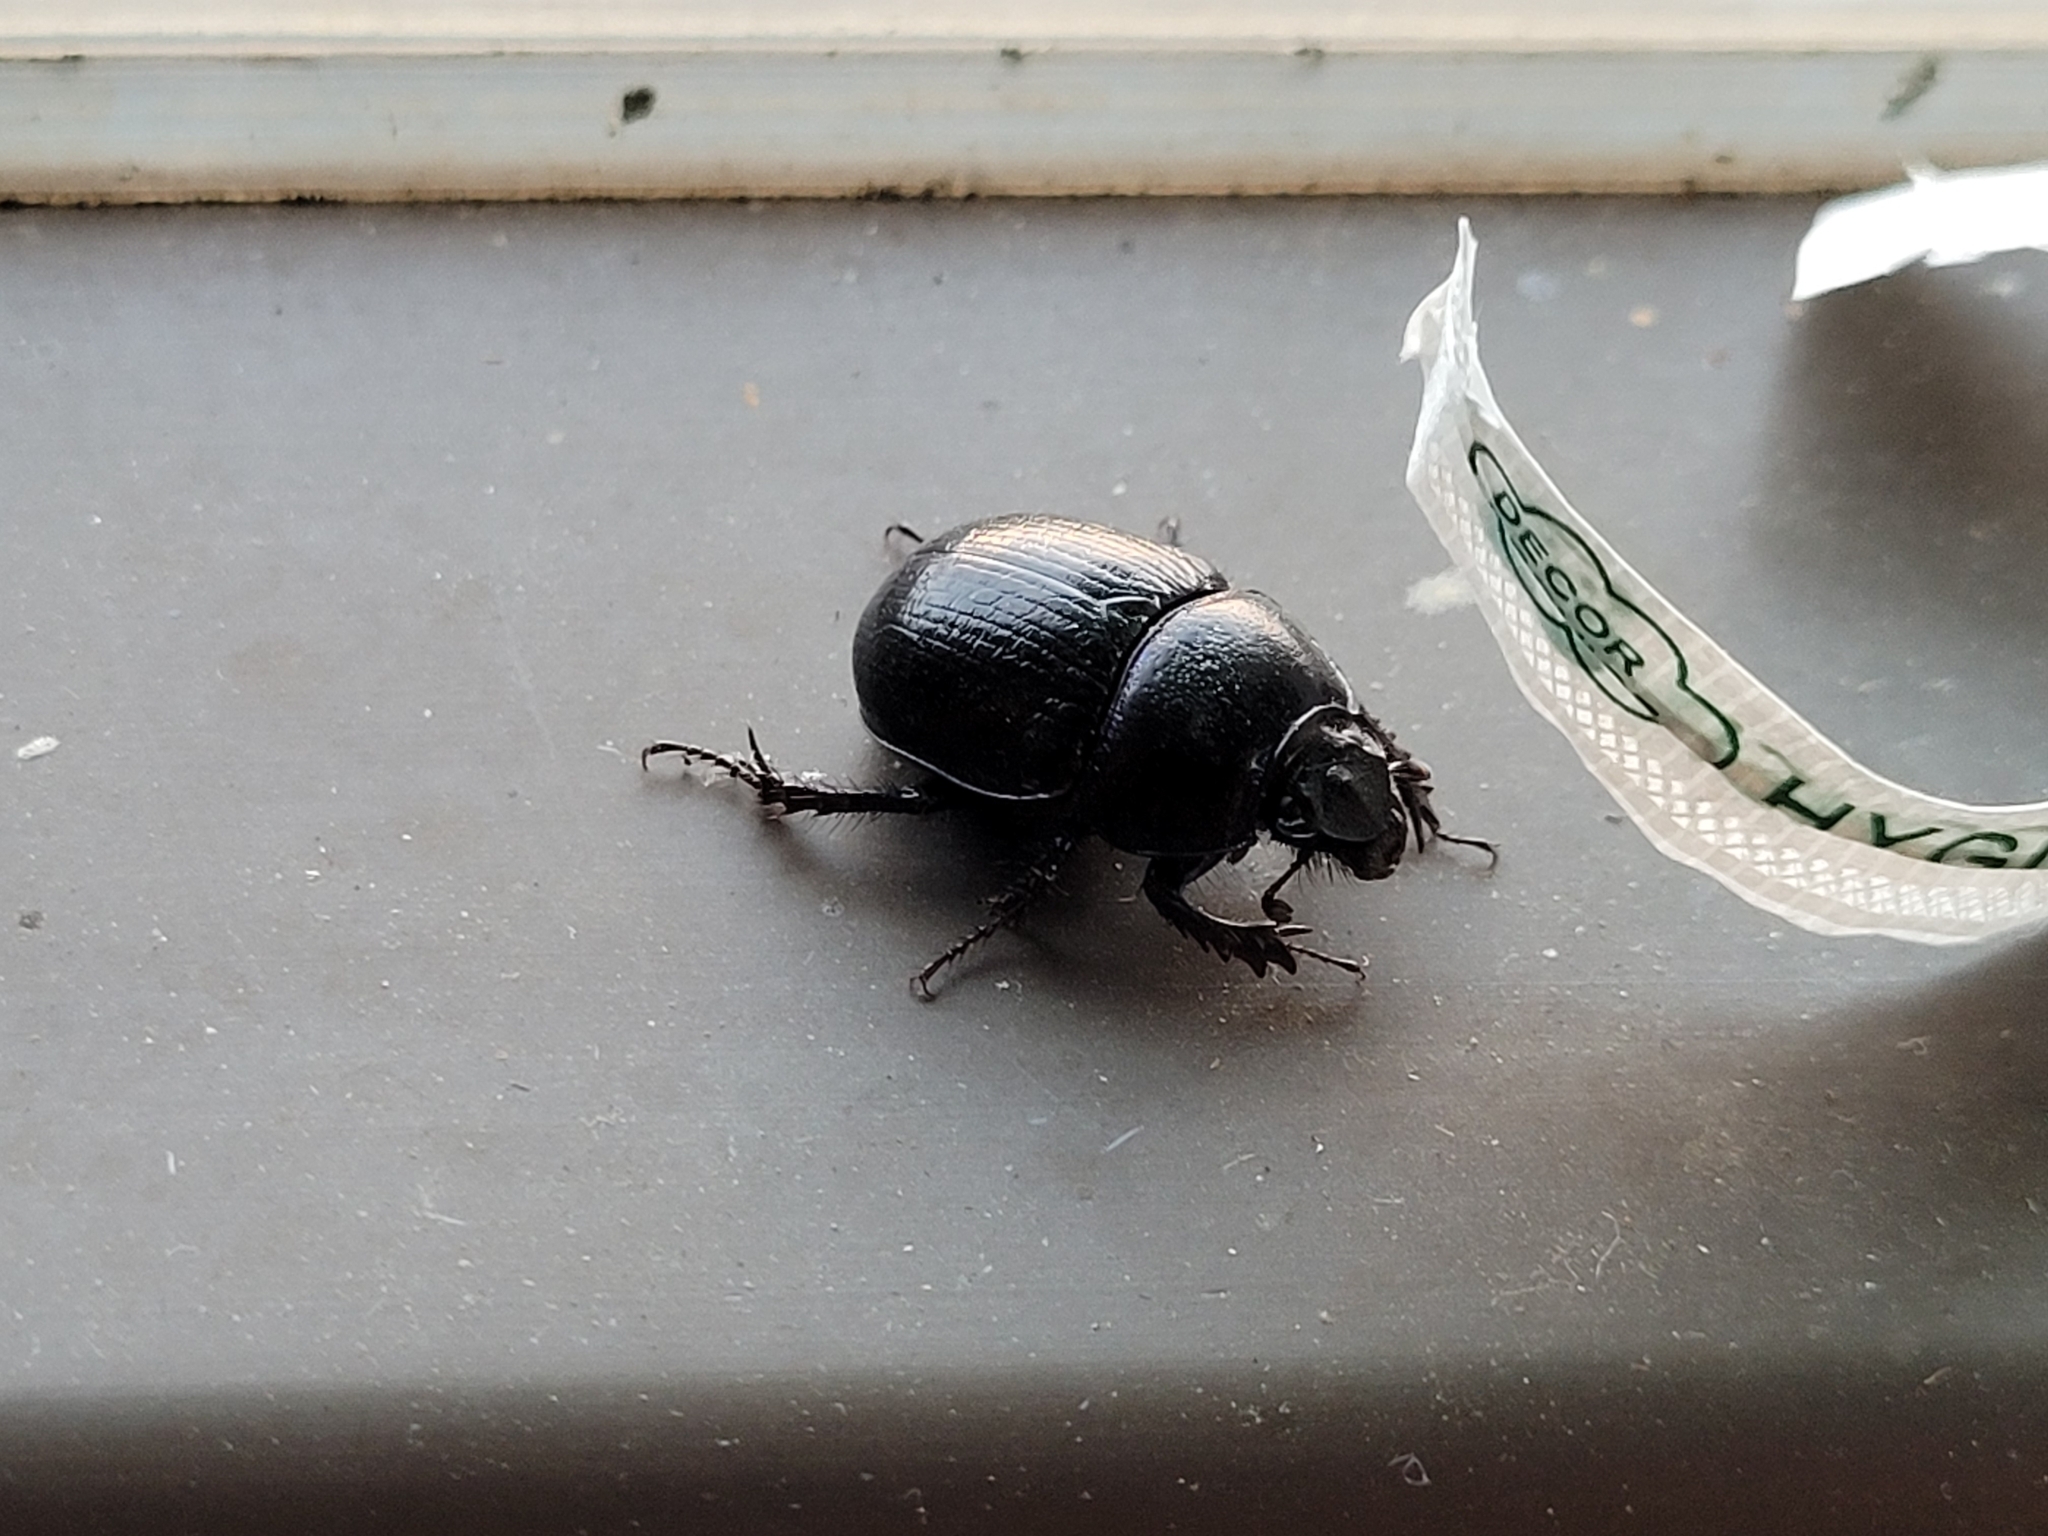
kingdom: Animalia
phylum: Arthropoda
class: Insecta
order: Coleoptera
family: Geotrupidae
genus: Anoplotrupes
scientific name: Anoplotrupes stercorosus
